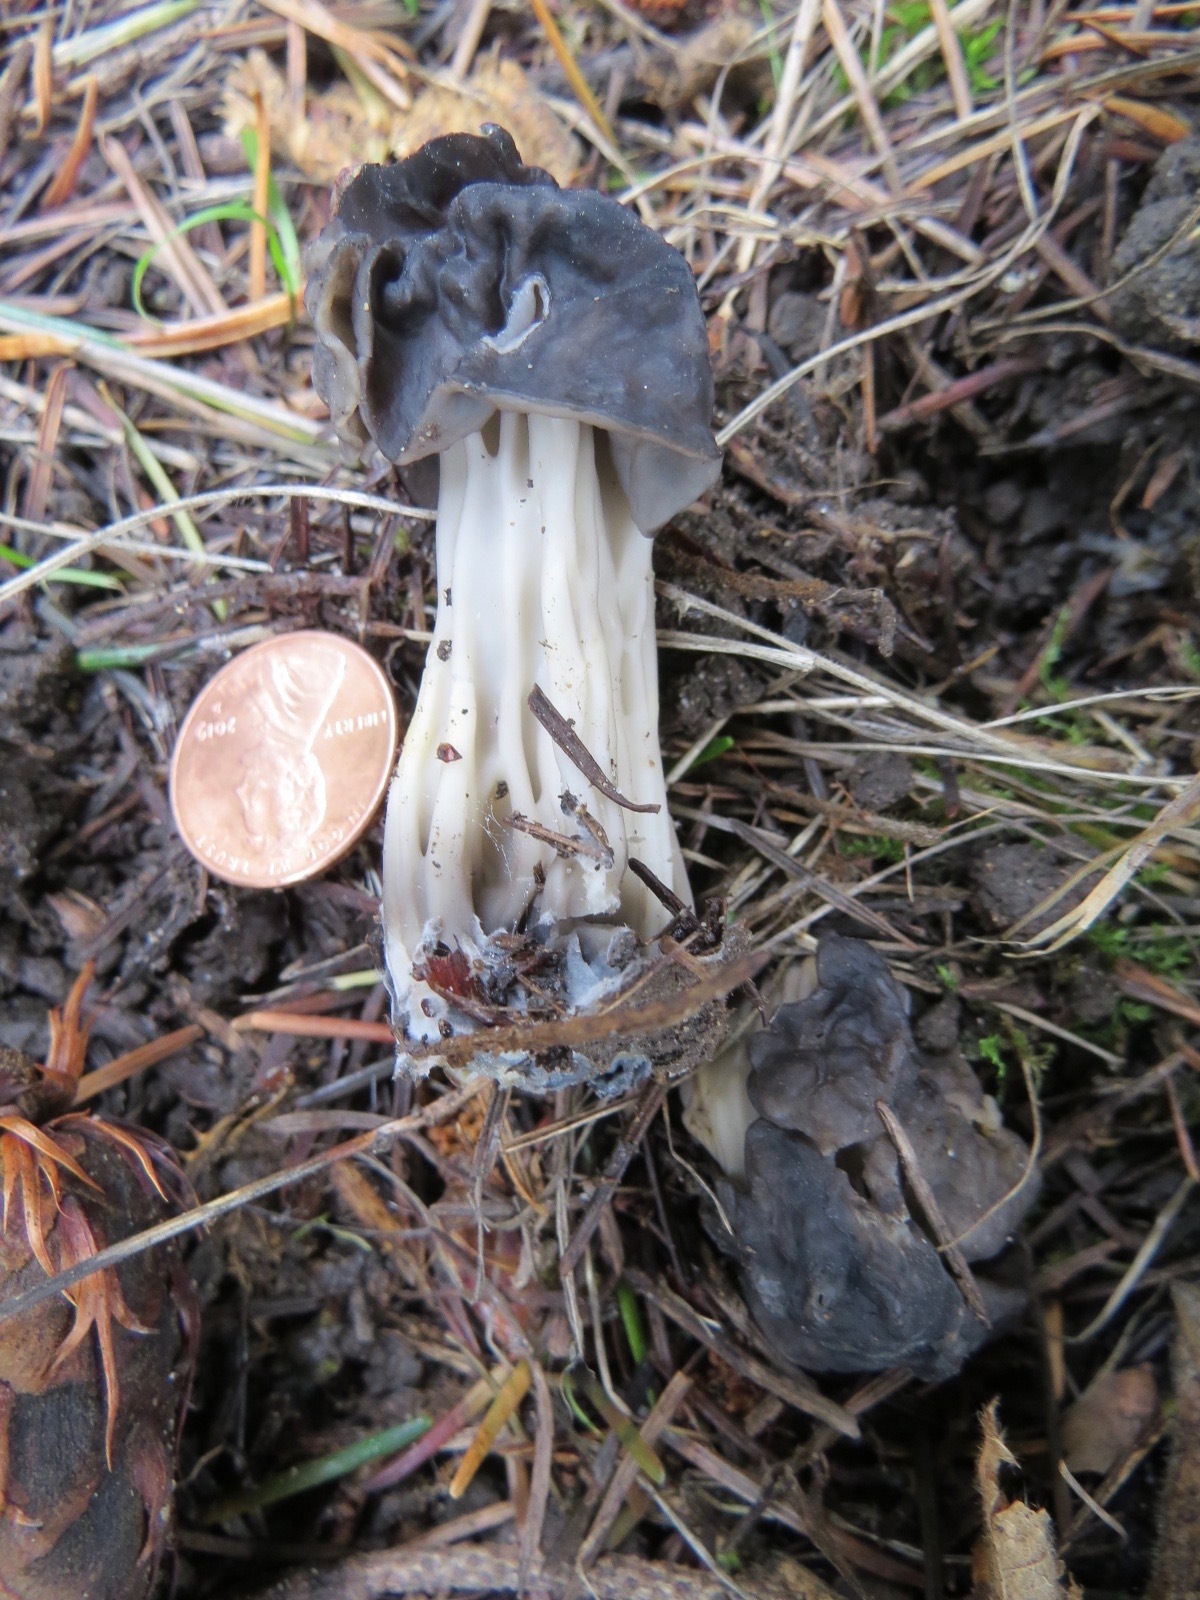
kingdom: Fungi
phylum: Ascomycota
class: Pezizomycetes
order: Pezizales
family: Helvellaceae
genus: Helvella
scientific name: Helvella vespertina
